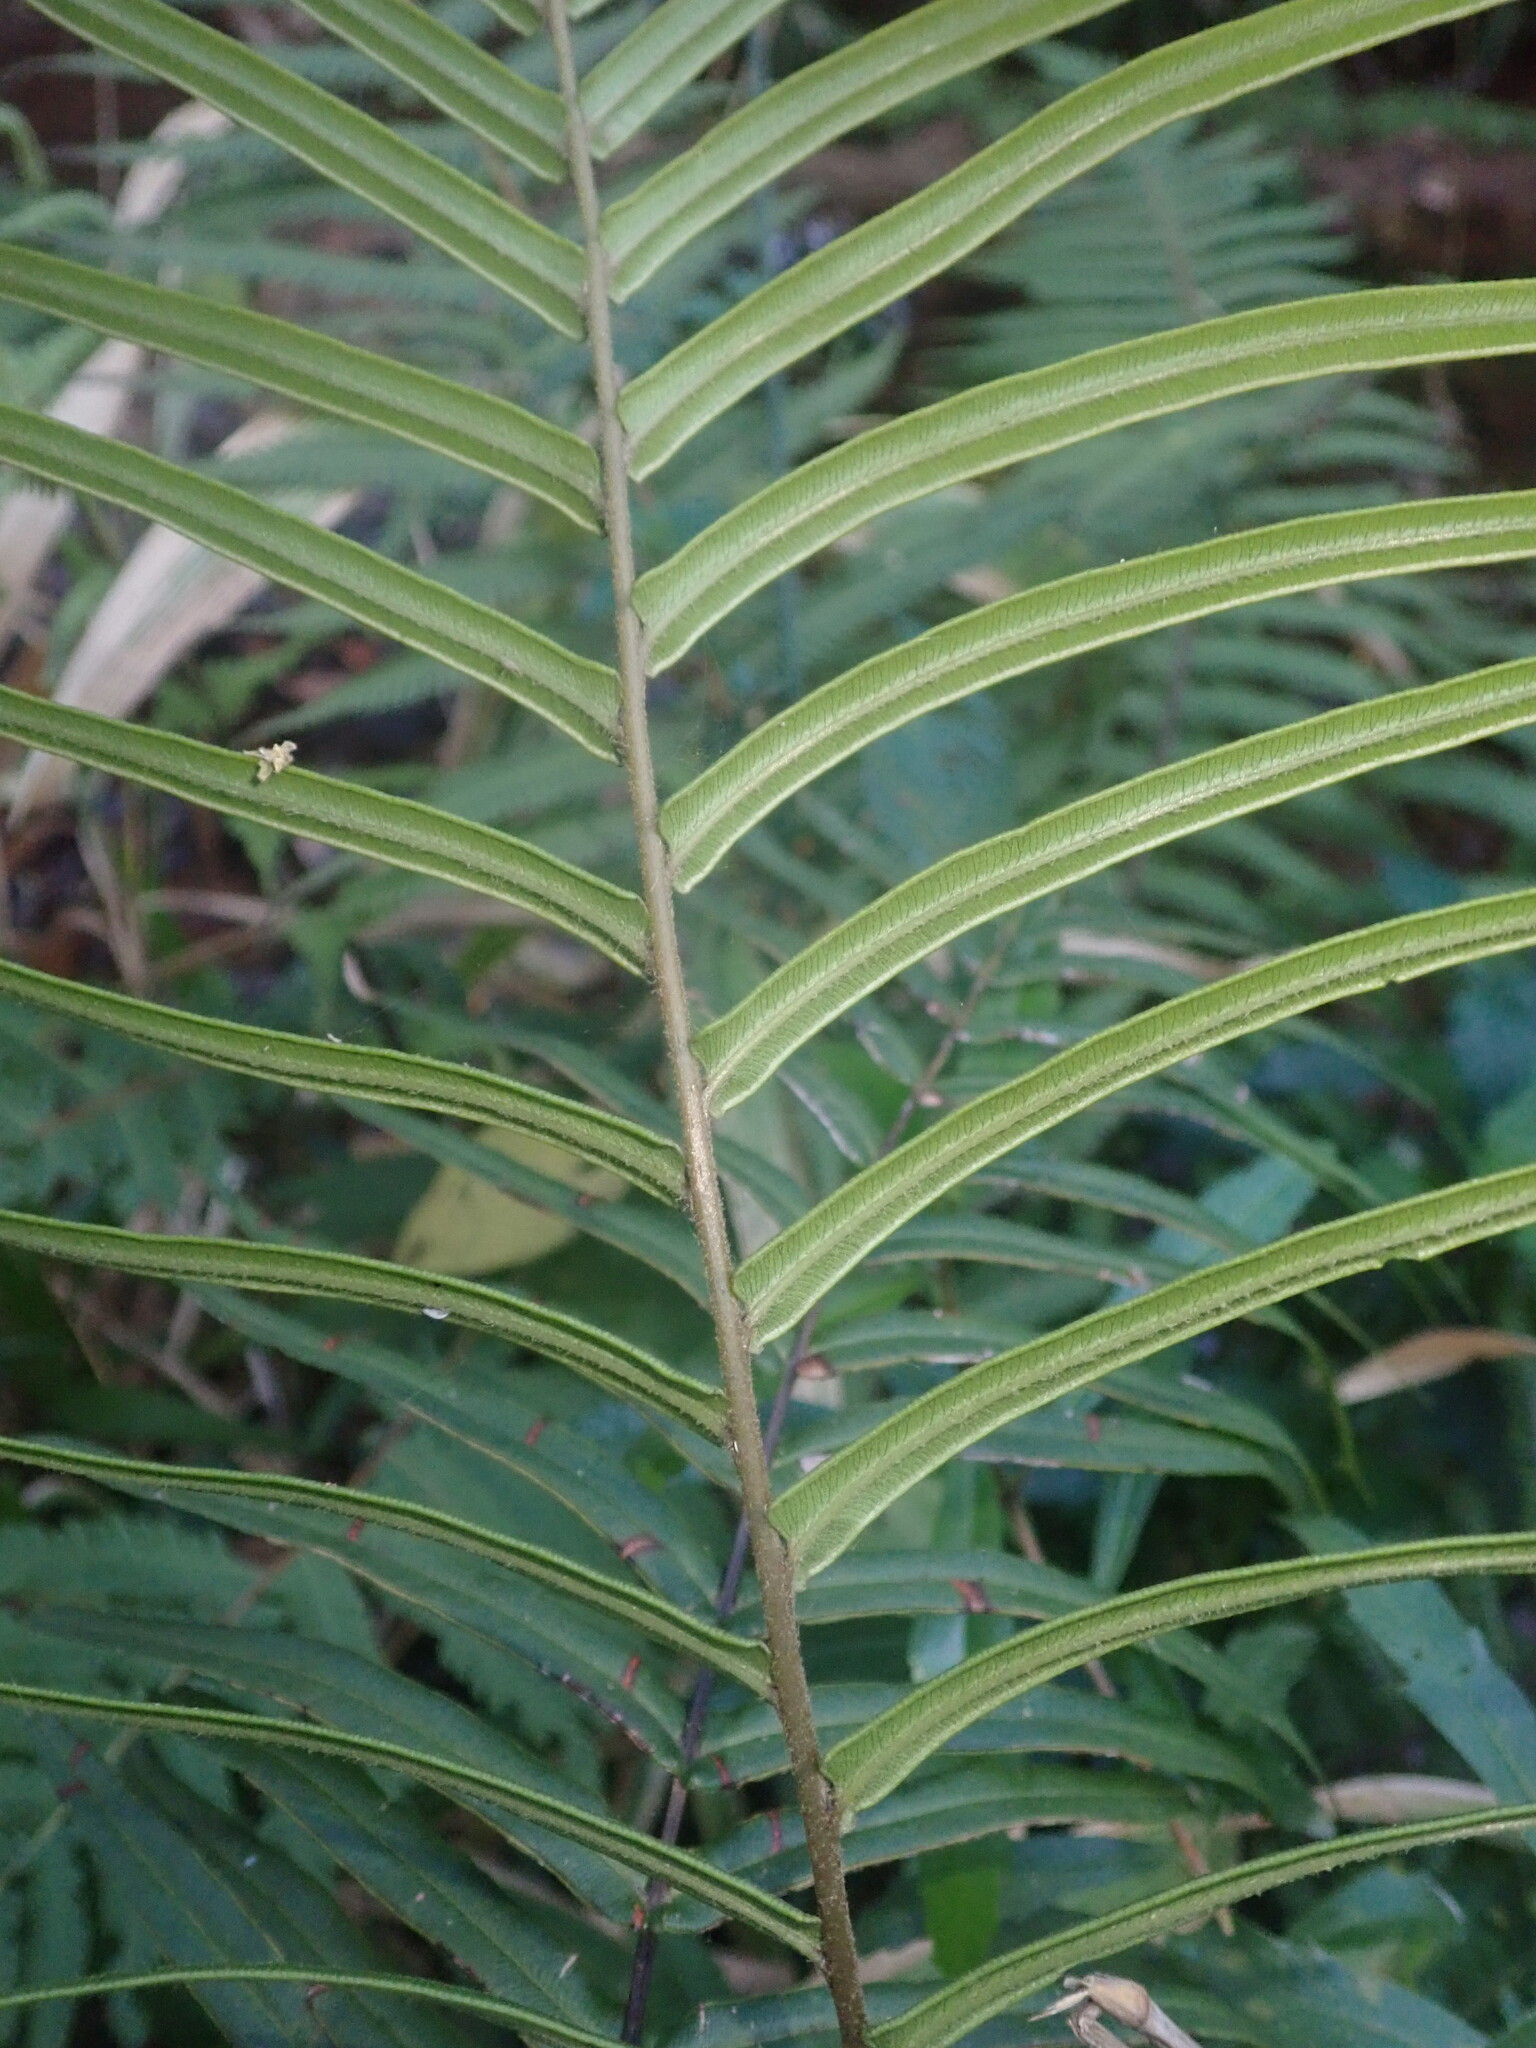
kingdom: Plantae
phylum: Tracheophyta
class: Polypodiopsida
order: Polypodiales
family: Pteridaceae
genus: Pteris
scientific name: Pteris vittata
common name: Ladder brake
